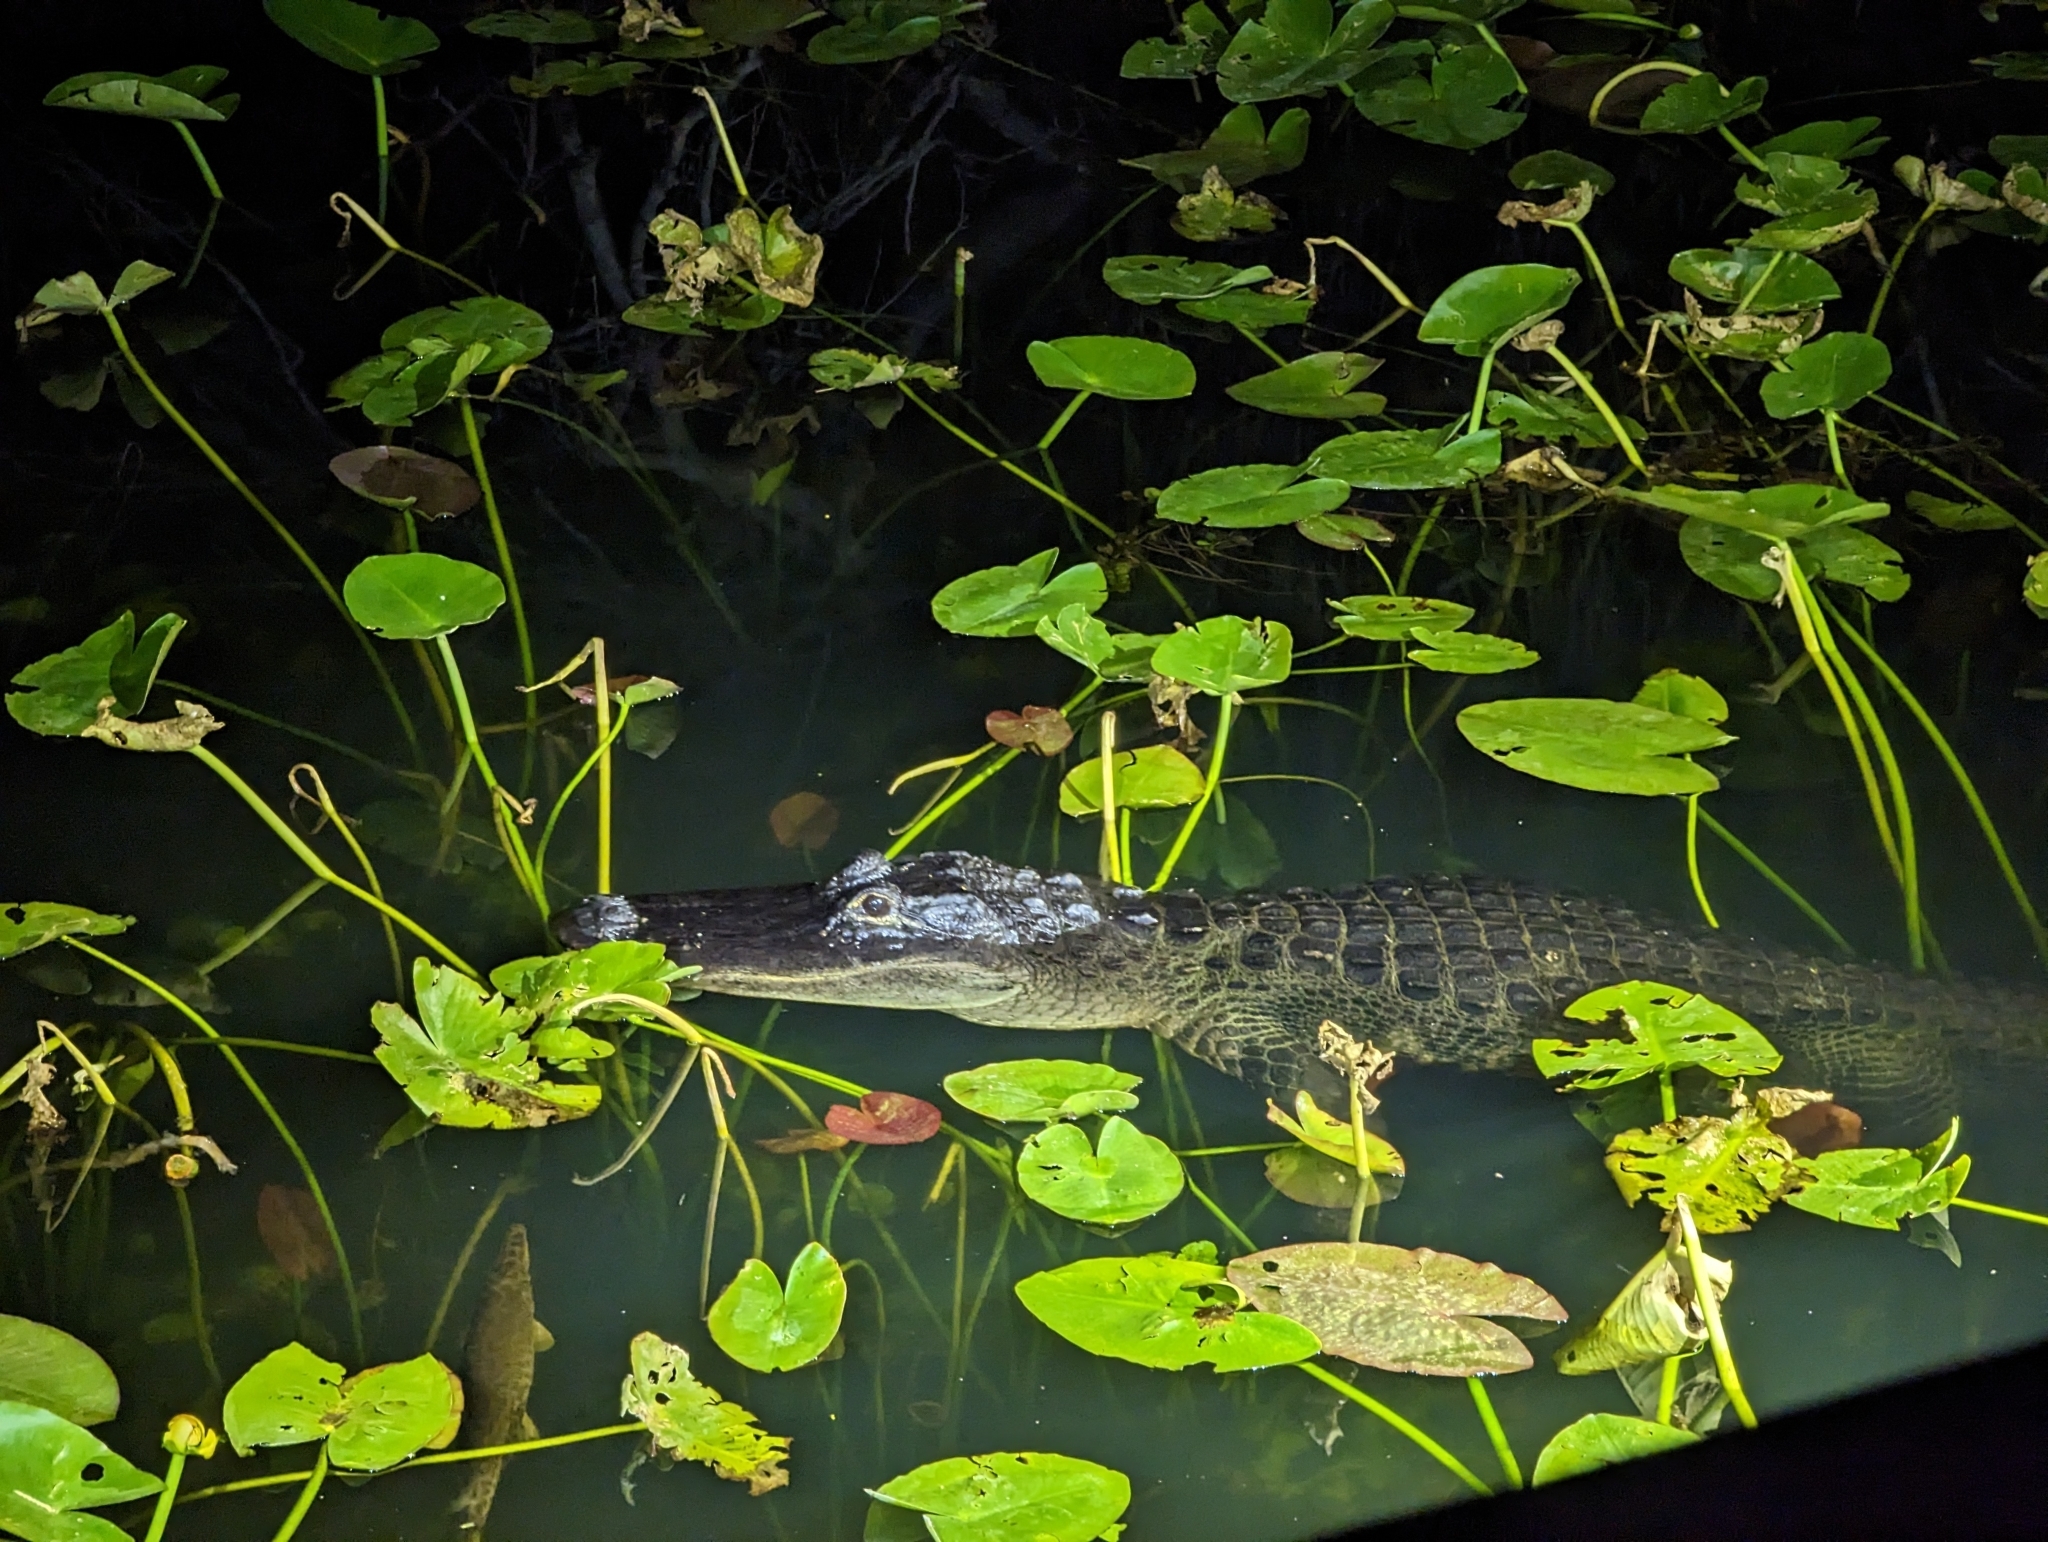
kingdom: Animalia
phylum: Chordata
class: Crocodylia
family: Alligatoridae
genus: Alligator
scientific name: Alligator mississippiensis
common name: American alligator
